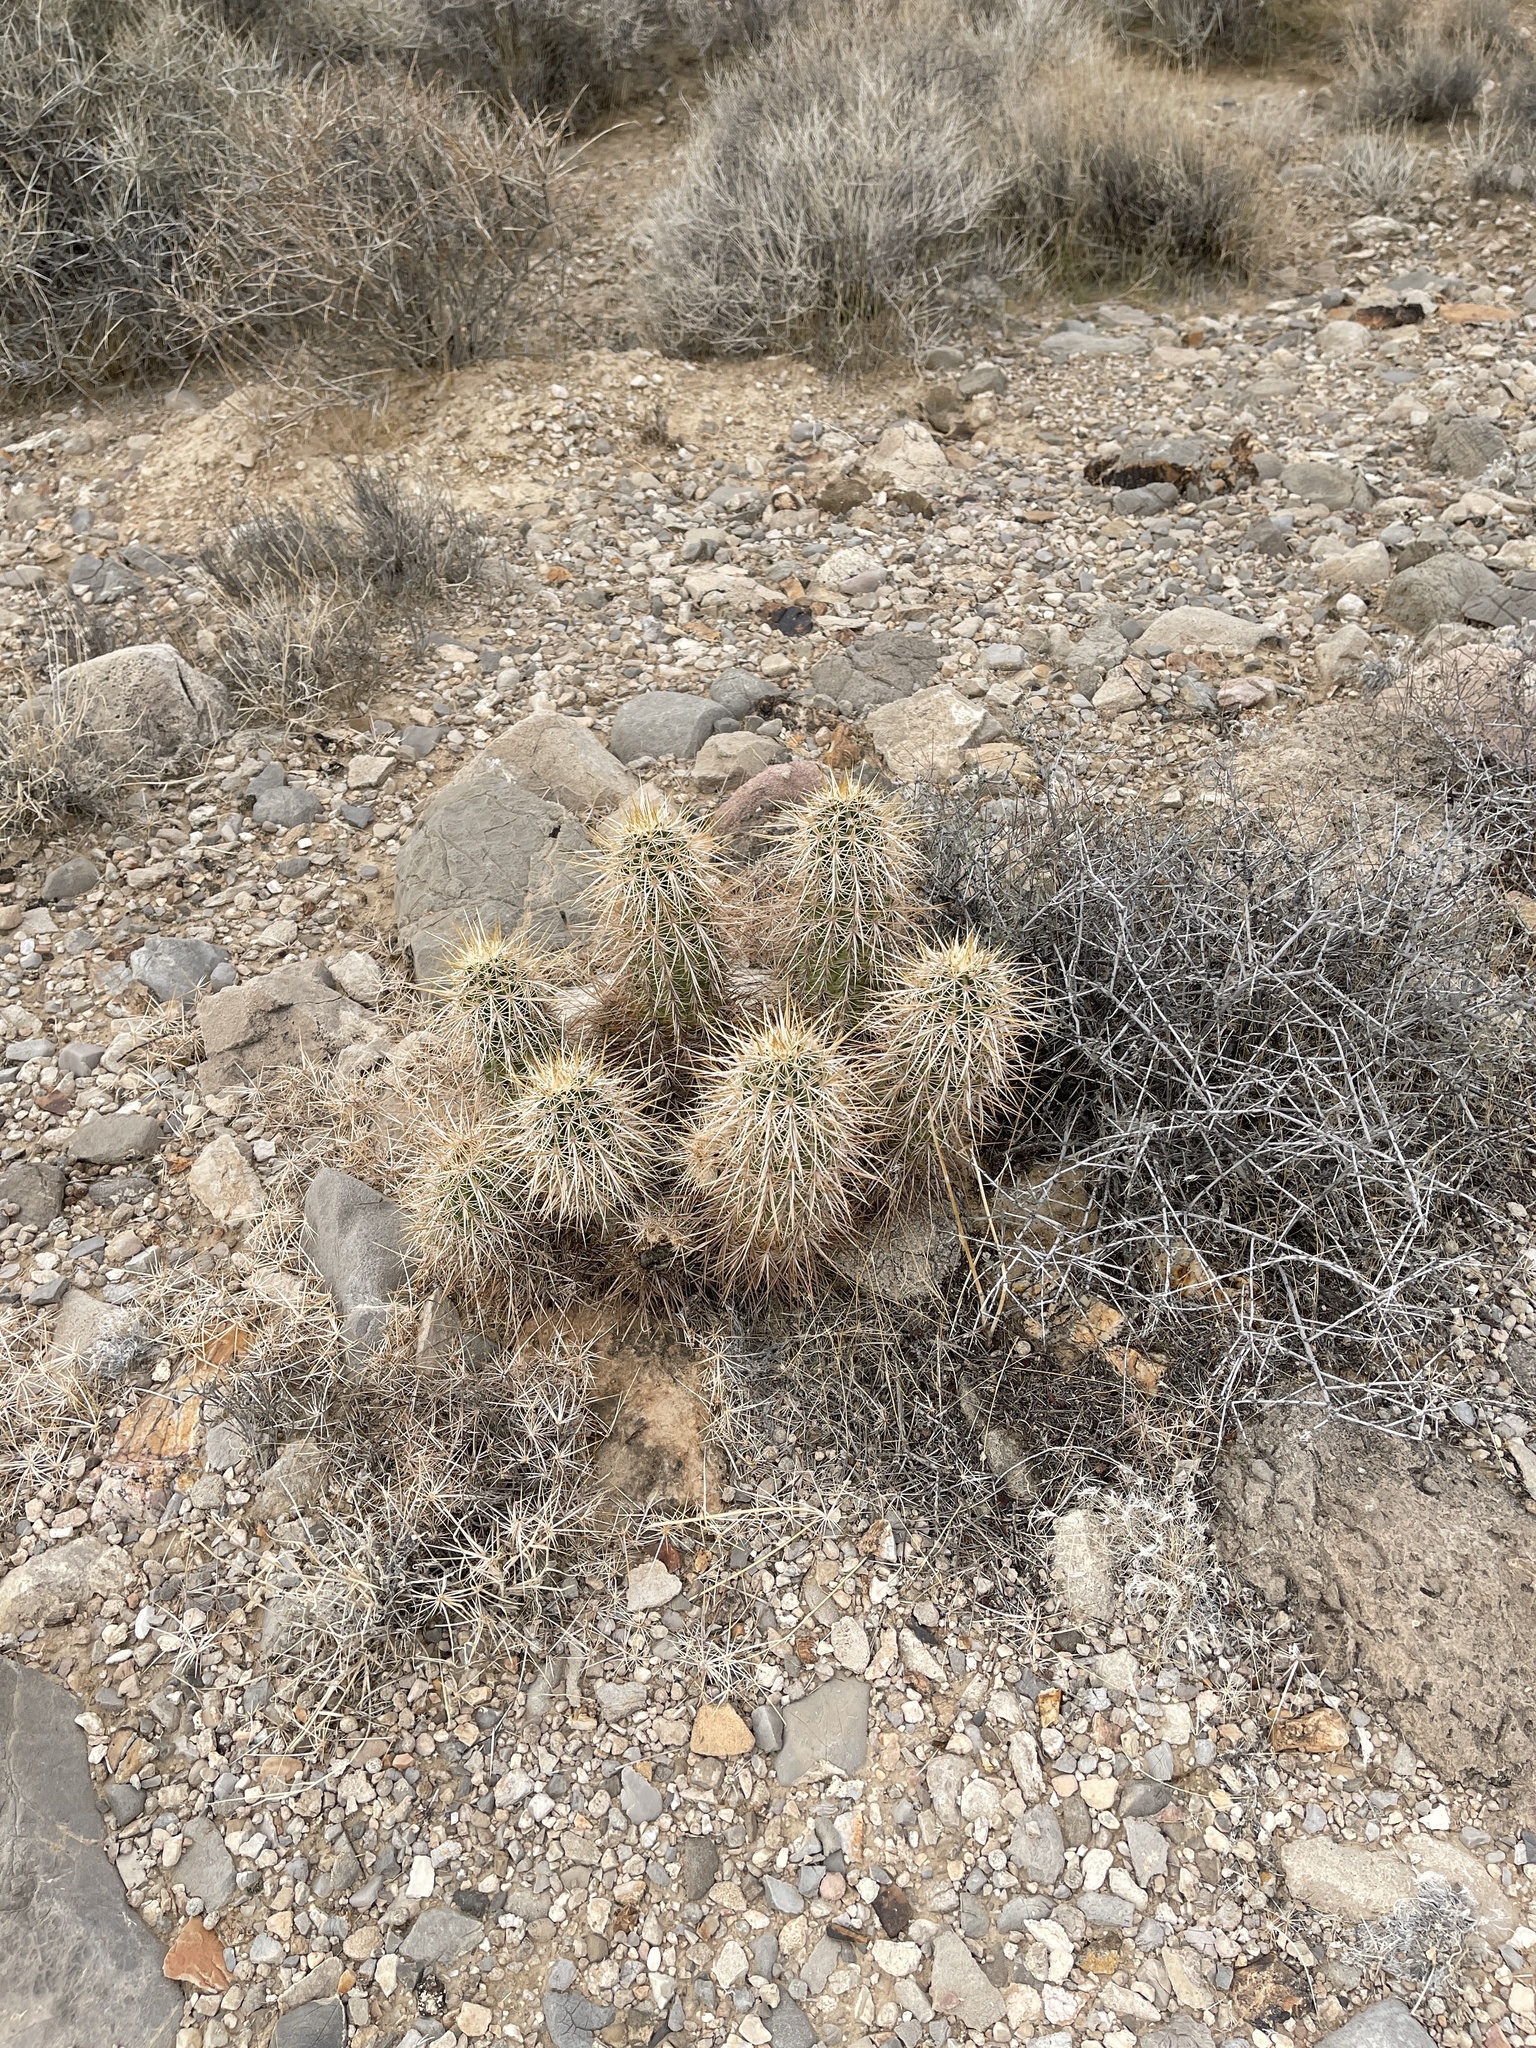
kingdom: Plantae
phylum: Tracheophyta
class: Magnoliopsida
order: Caryophyllales
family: Cactaceae
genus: Echinocereus
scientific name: Echinocereus engelmannii
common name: Engelmann's hedgehog cactus
